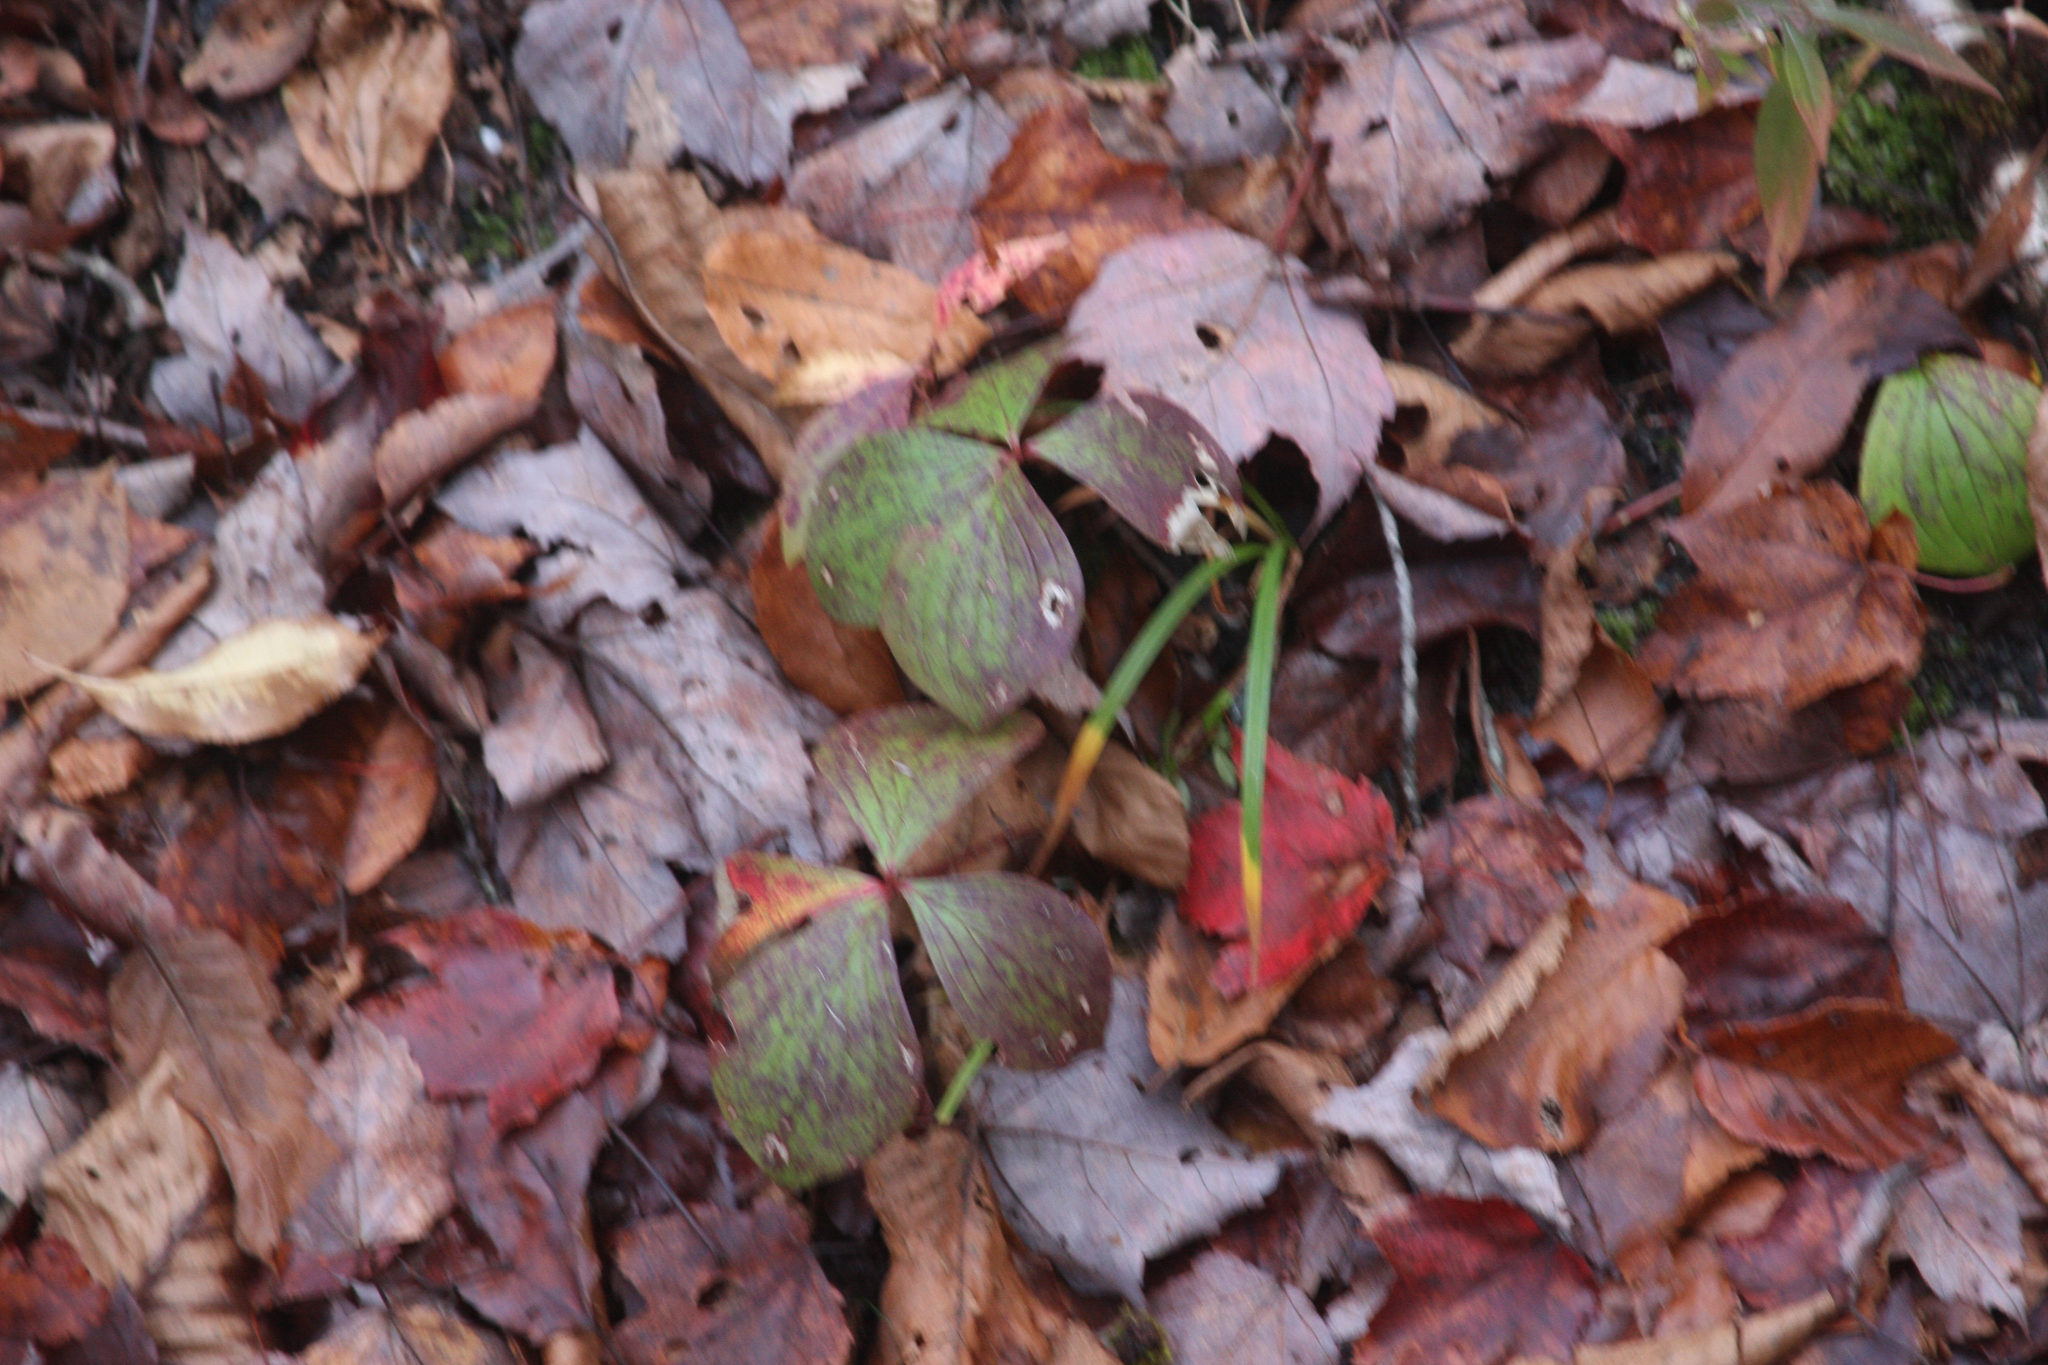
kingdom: Plantae
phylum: Tracheophyta
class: Magnoliopsida
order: Cornales
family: Cornaceae
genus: Cornus
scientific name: Cornus canadensis
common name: Creeping dogwood
